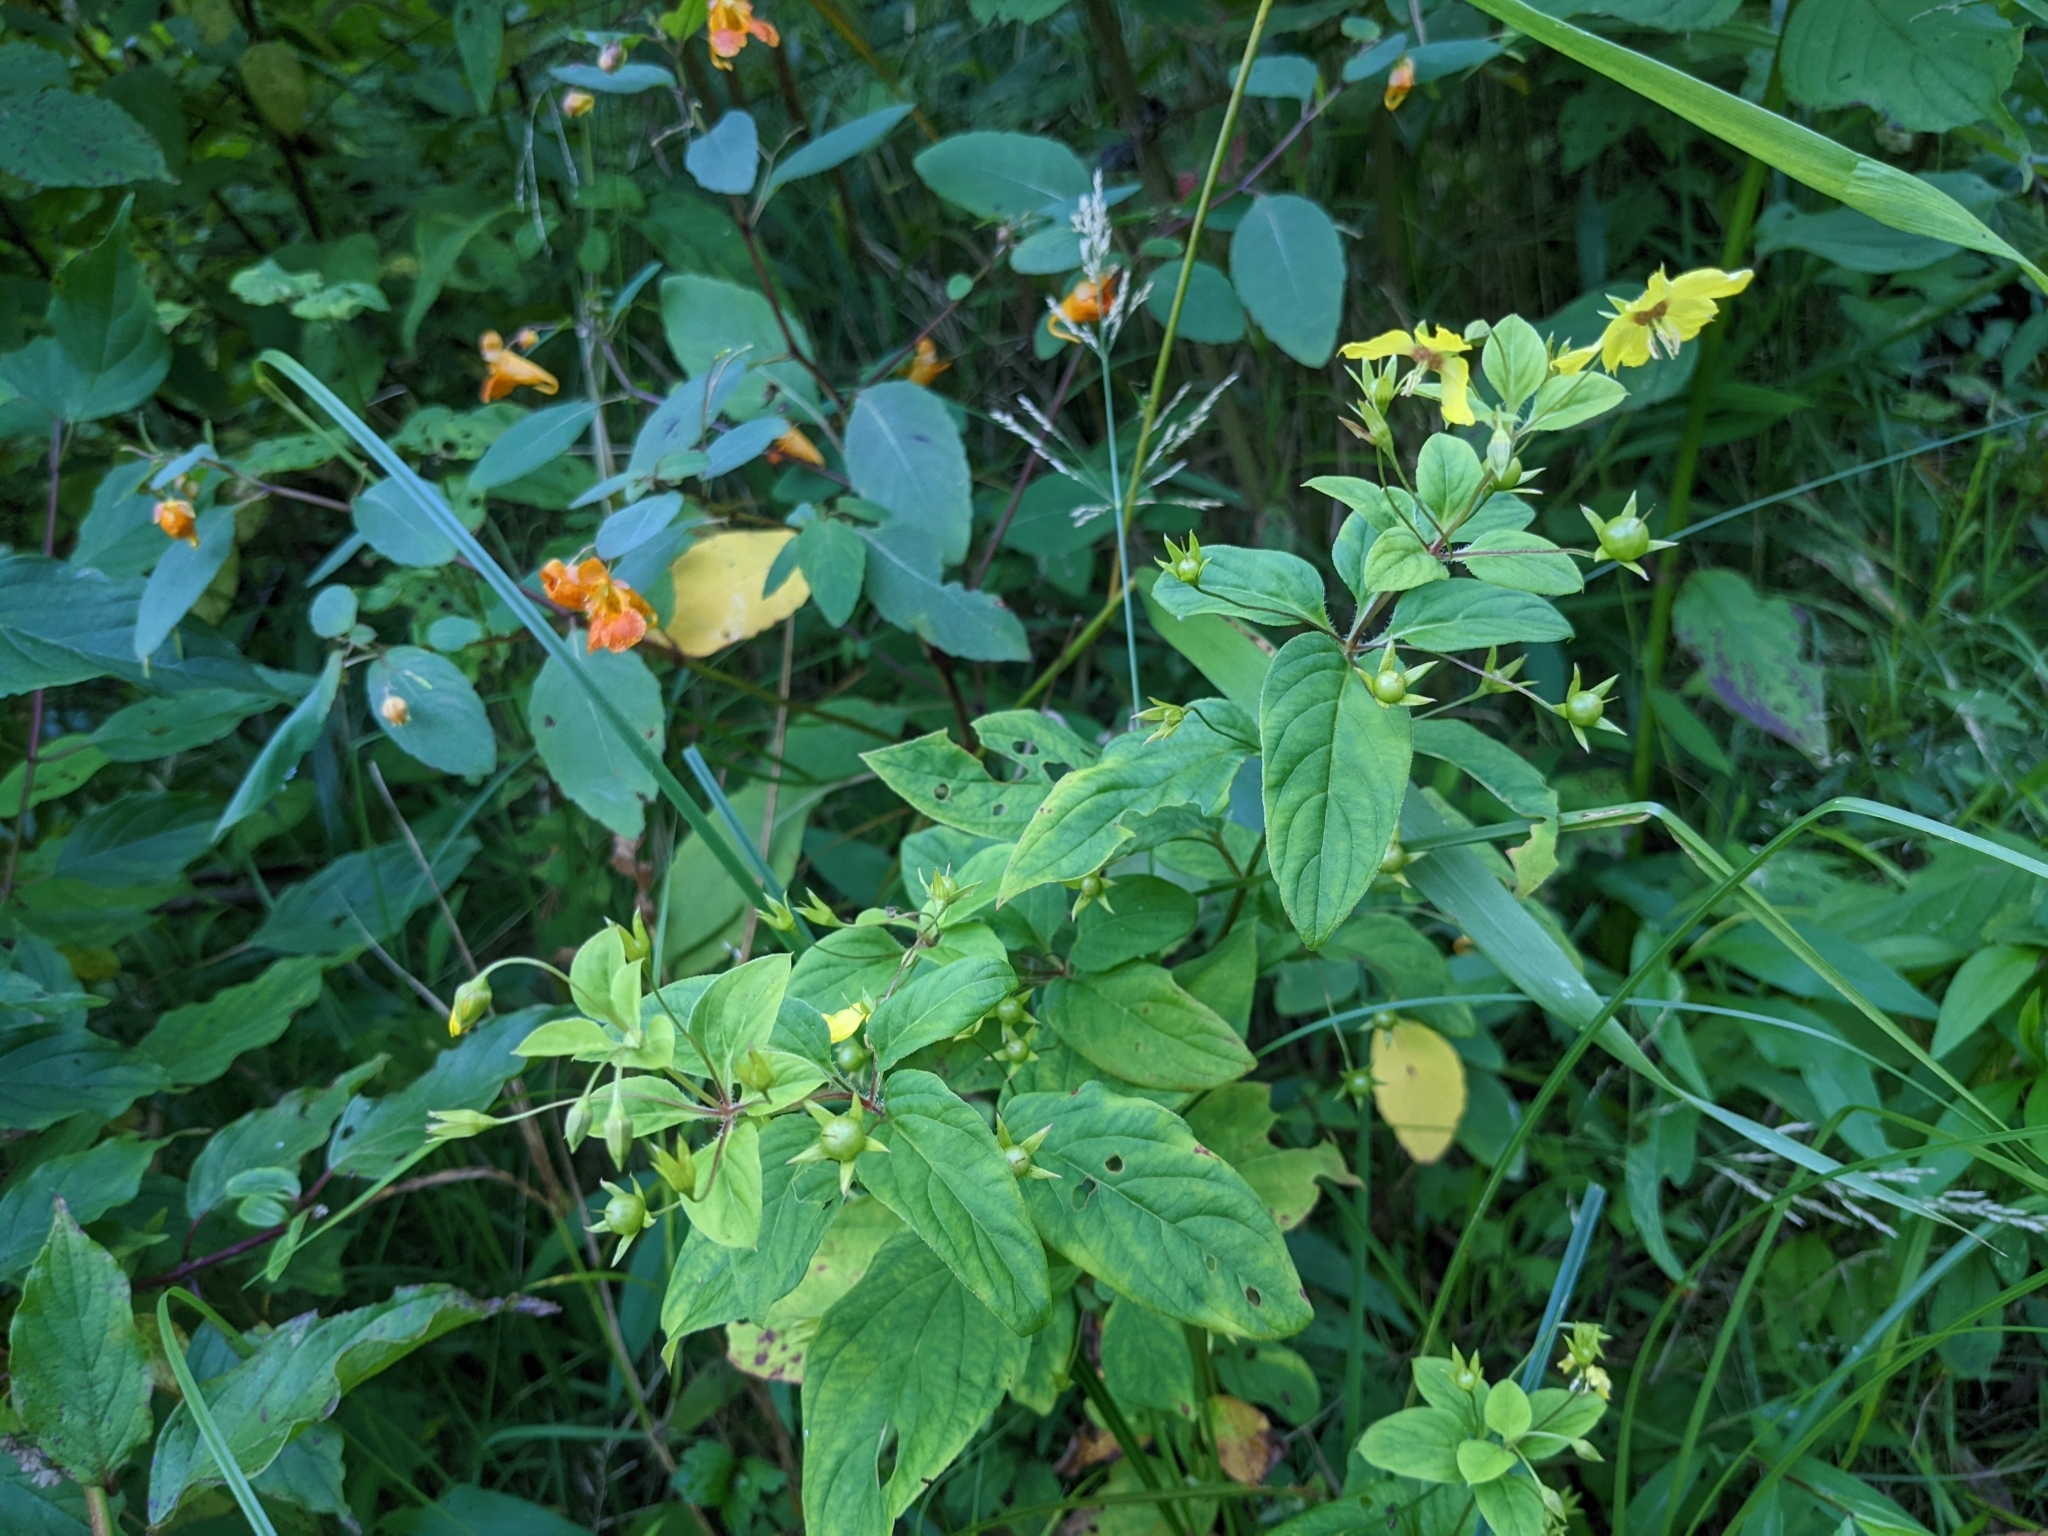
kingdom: Plantae
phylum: Tracheophyta
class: Magnoliopsida
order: Ericales
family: Primulaceae
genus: Lysimachia
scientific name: Lysimachia ciliata
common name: Fringed loosestrife
